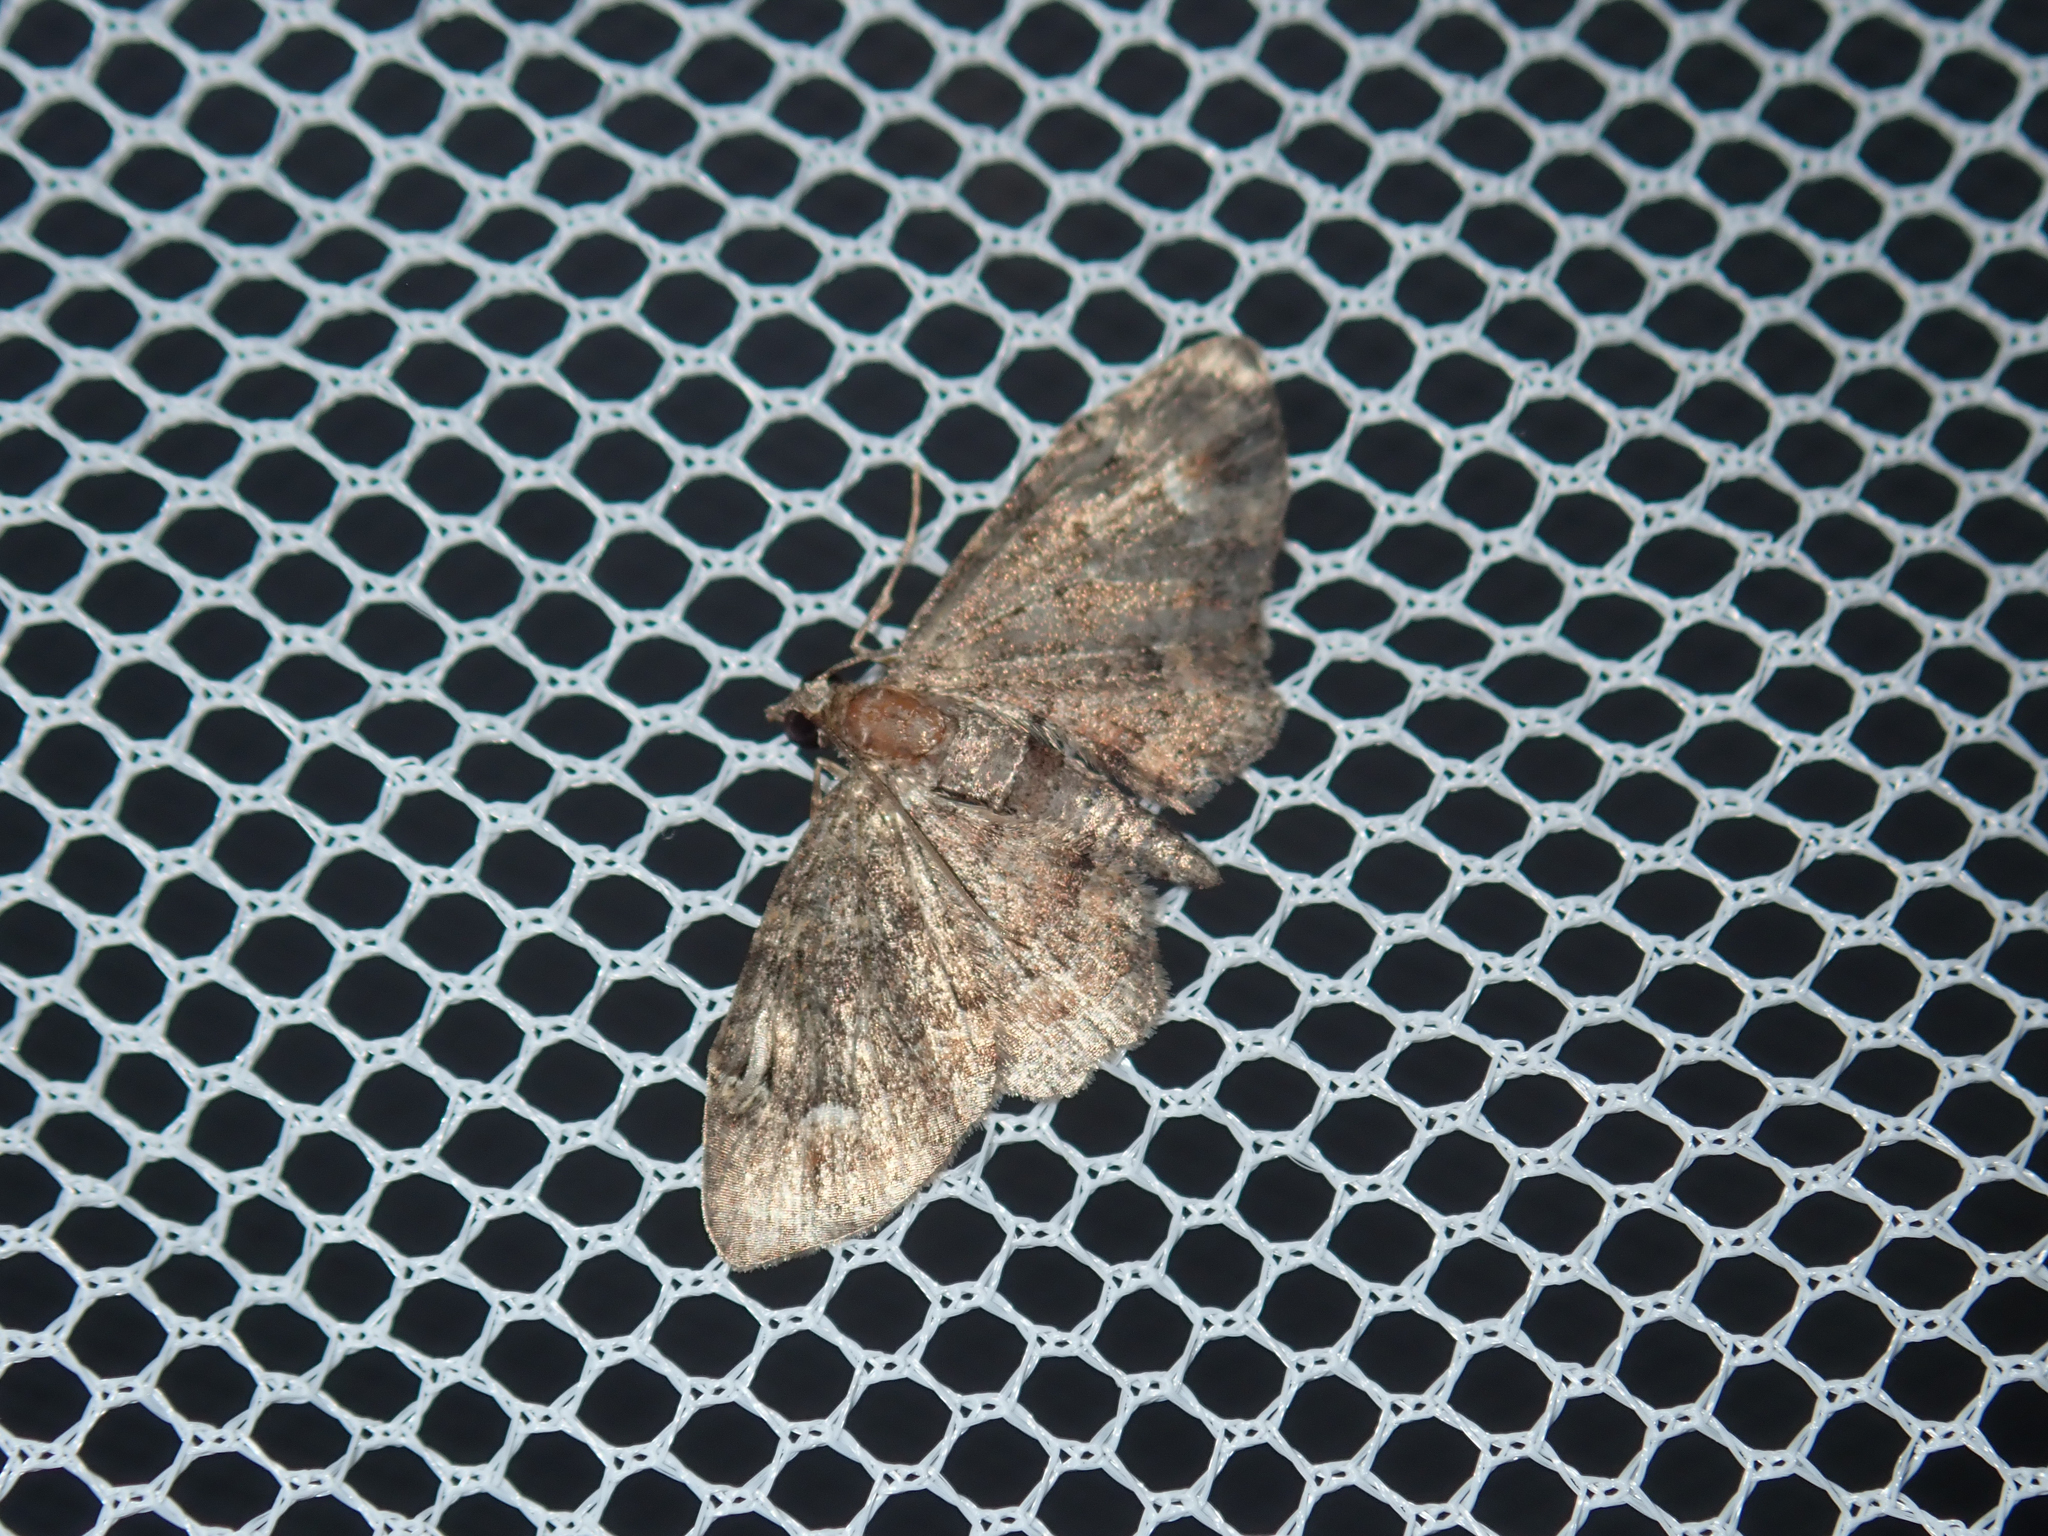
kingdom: Animalia
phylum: Arthropoda
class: Insecta
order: Lepidoptera
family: Geometridae
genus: Pasiphilodes
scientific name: Pasiphilodes testulata
